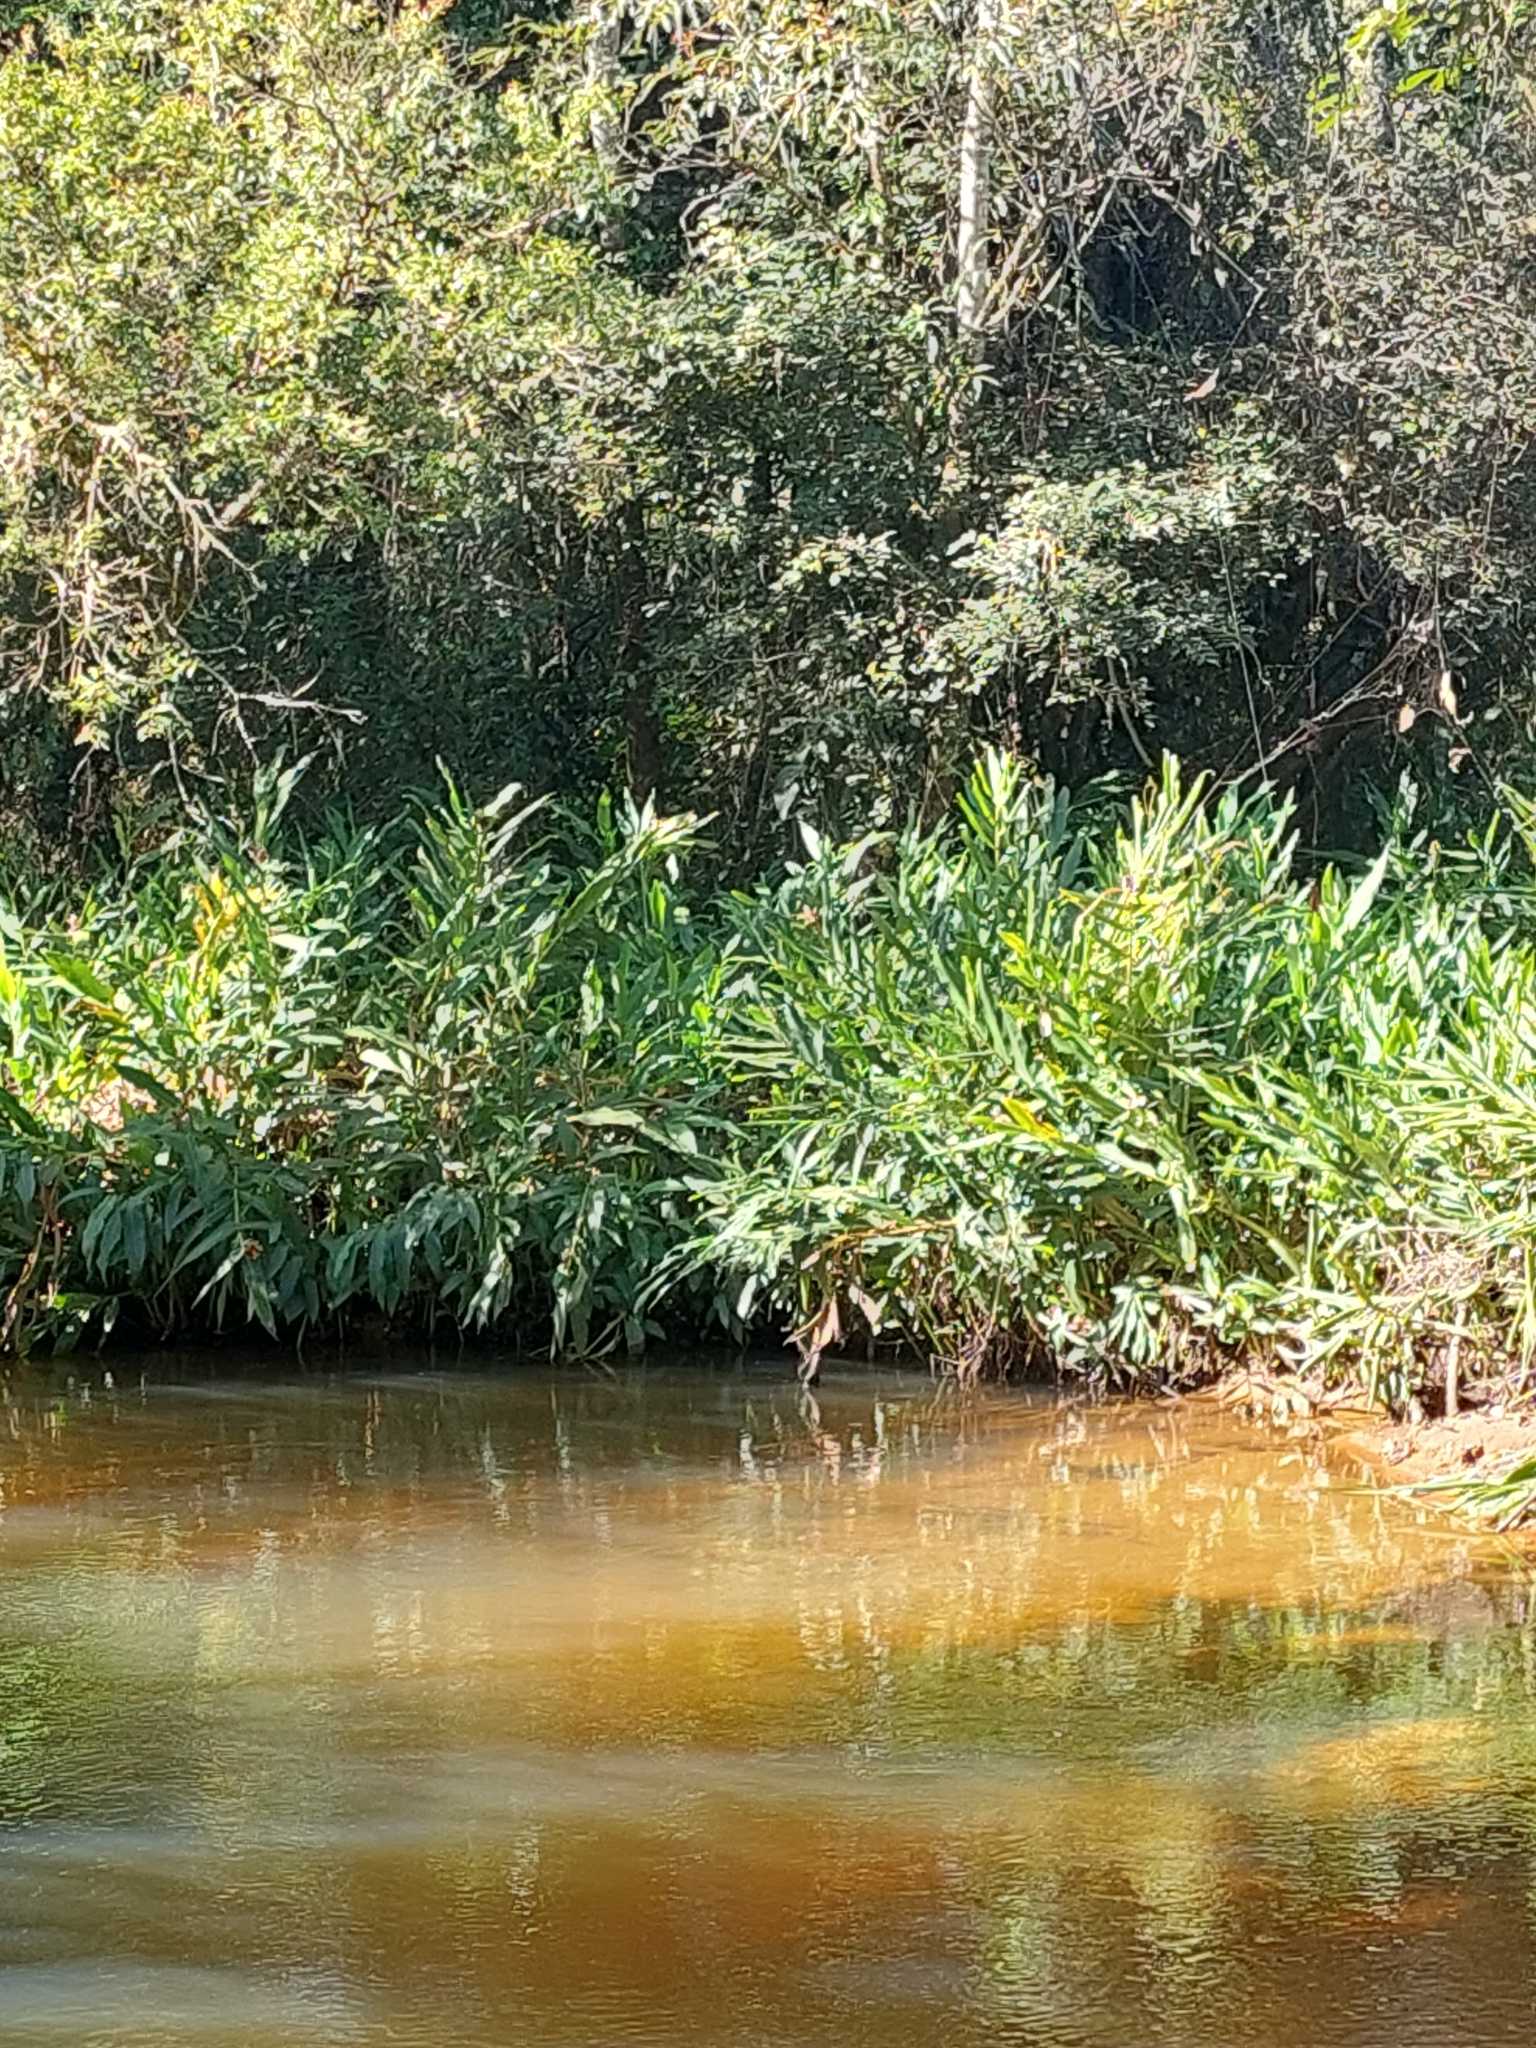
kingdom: Plantae
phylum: Tracheophyta
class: Liliopsida
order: Zingiberales
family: Zingiberaceae
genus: Hedychium
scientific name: Hedychium coronarium
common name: White garland-lily
